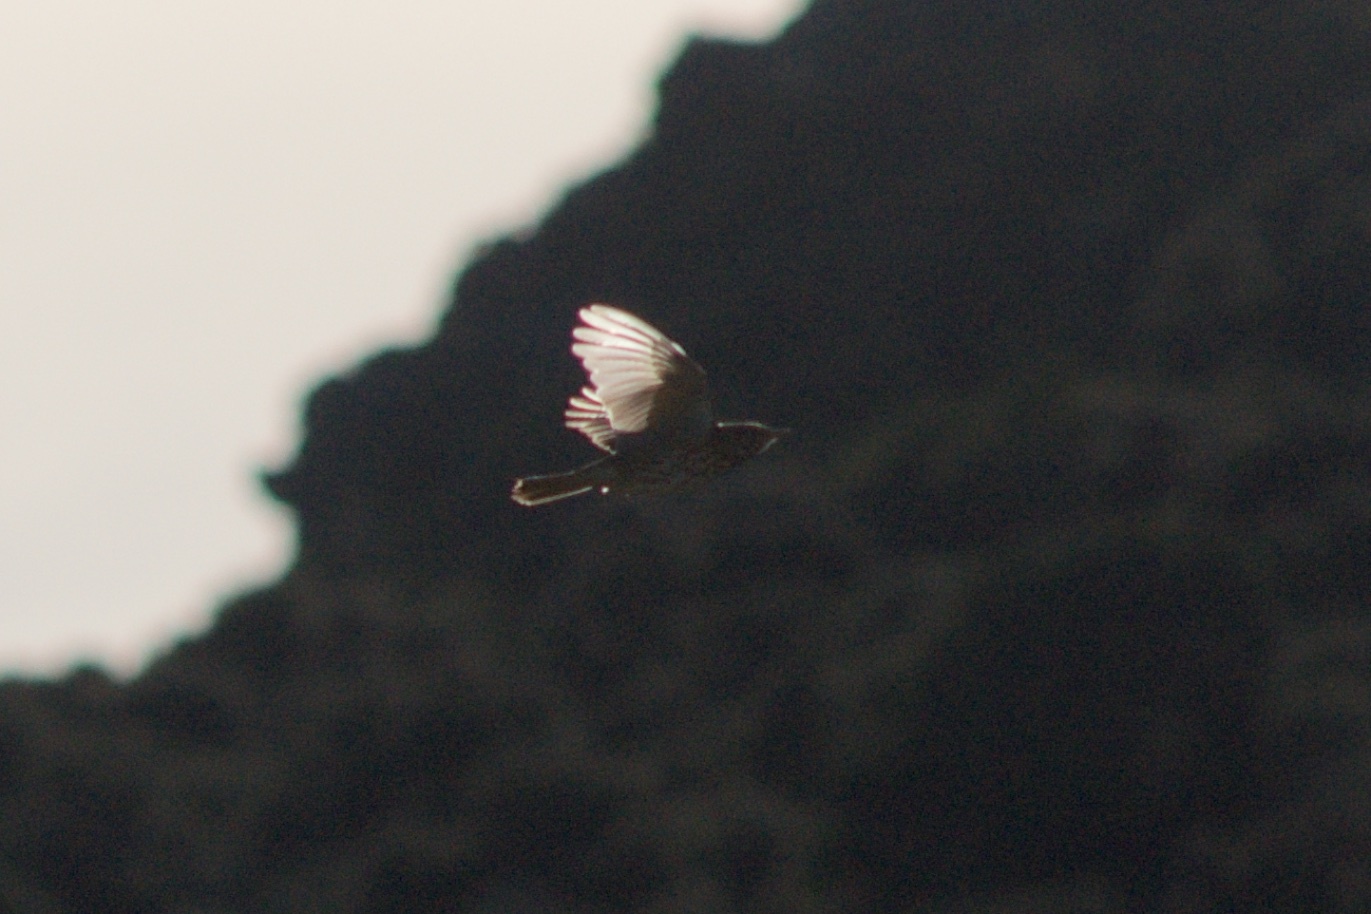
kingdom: Animalia
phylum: Chordata
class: Aves
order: Passeriformes
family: Turdidae
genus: Turdus
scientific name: Turdus philomelos
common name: Song thrush
